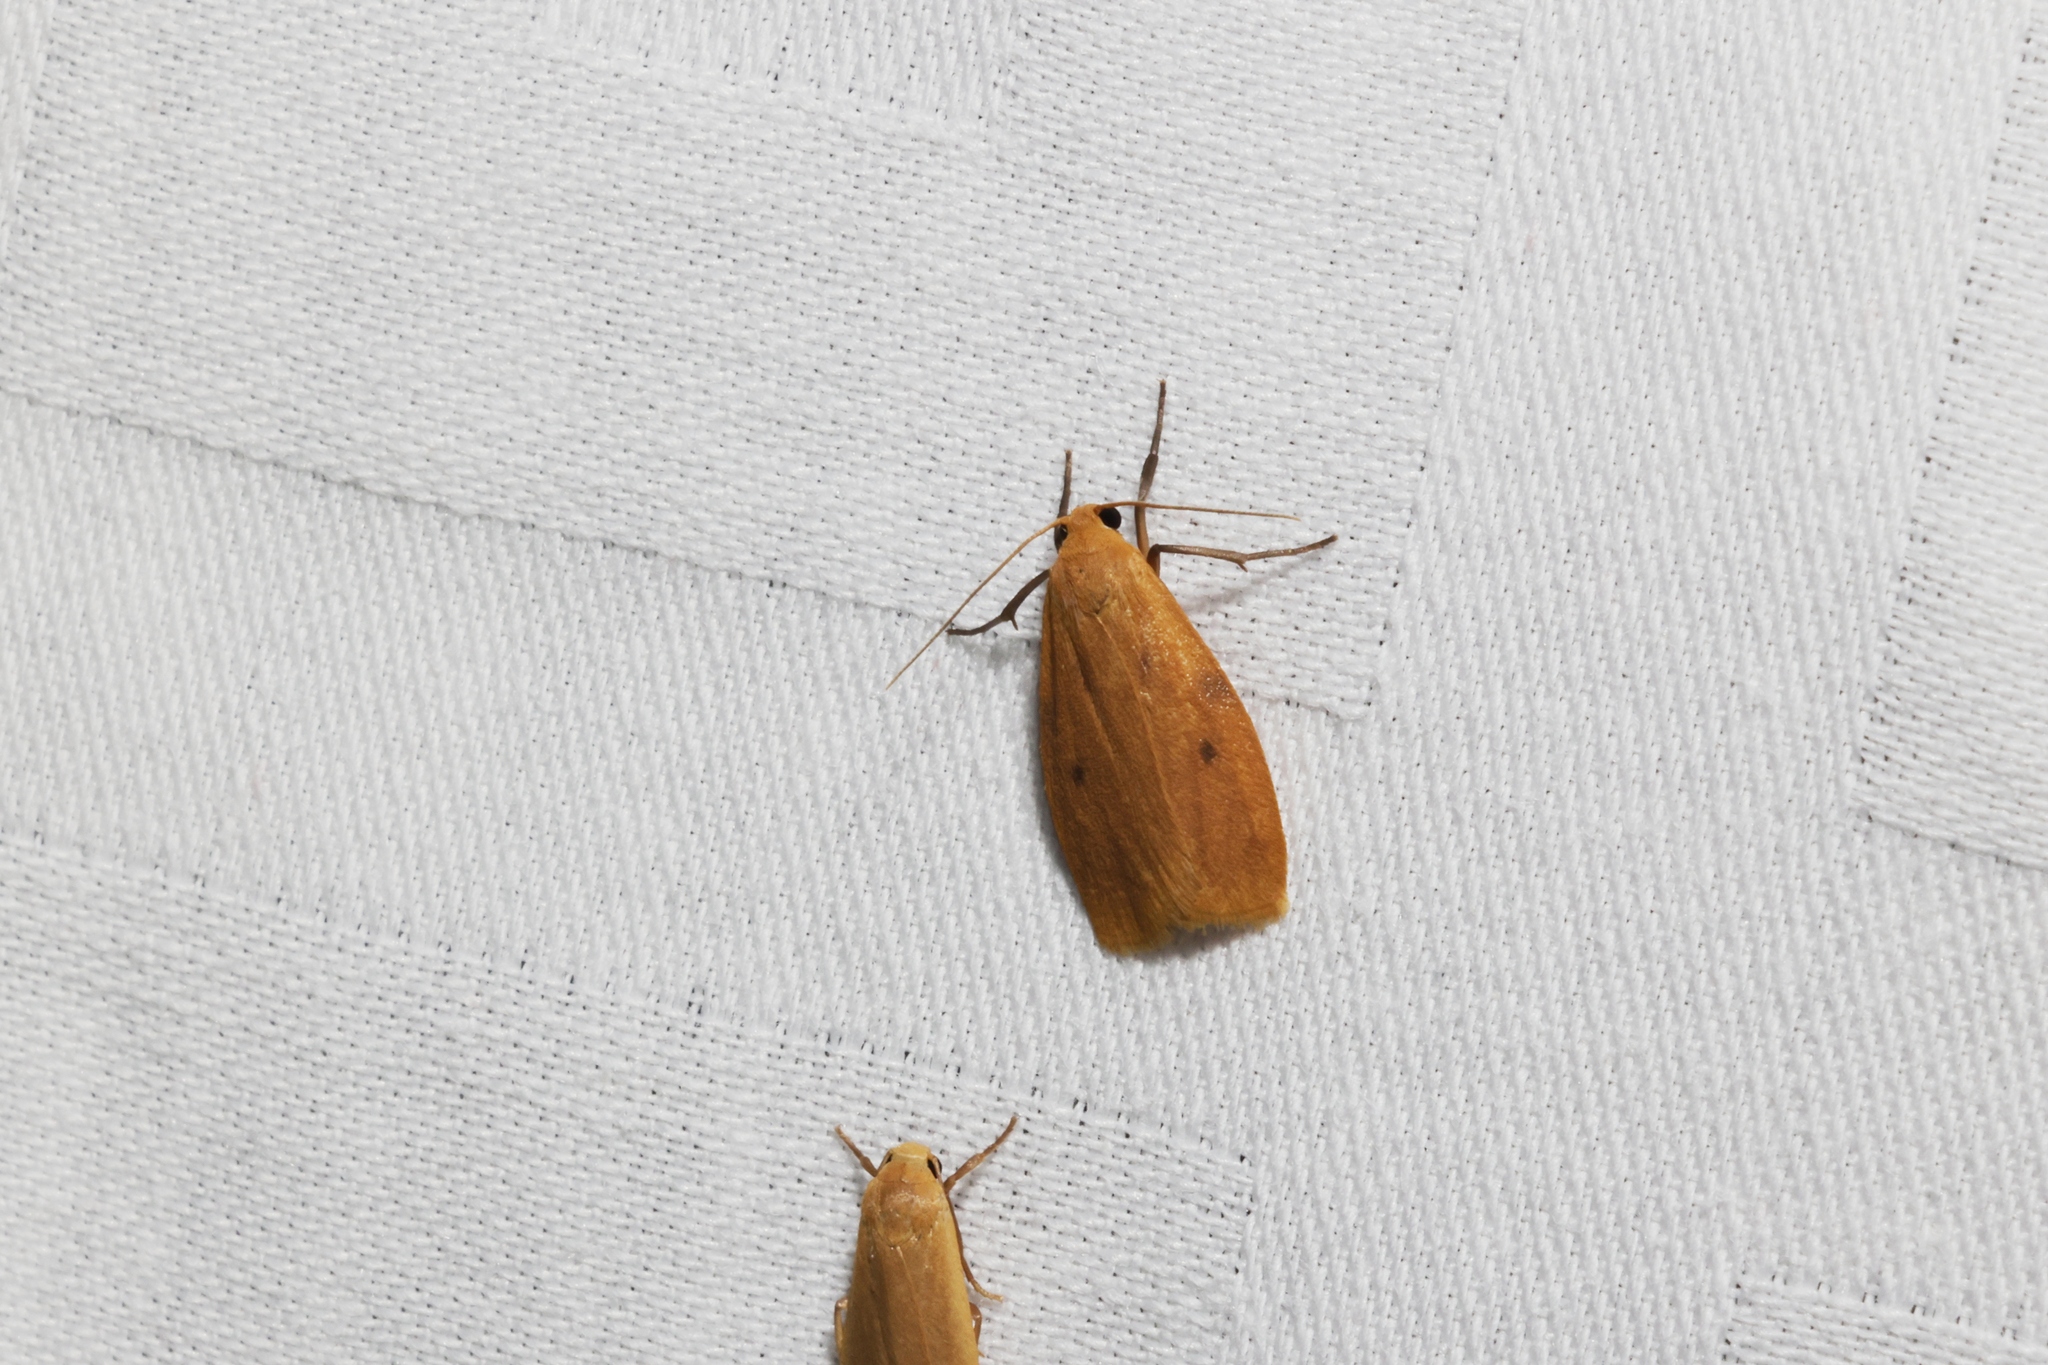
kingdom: Animalia
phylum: Arthropoda
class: Insecta
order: Lepidoptera
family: Erebidae
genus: Microlithosia
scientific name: Microlithosia shaowuica
